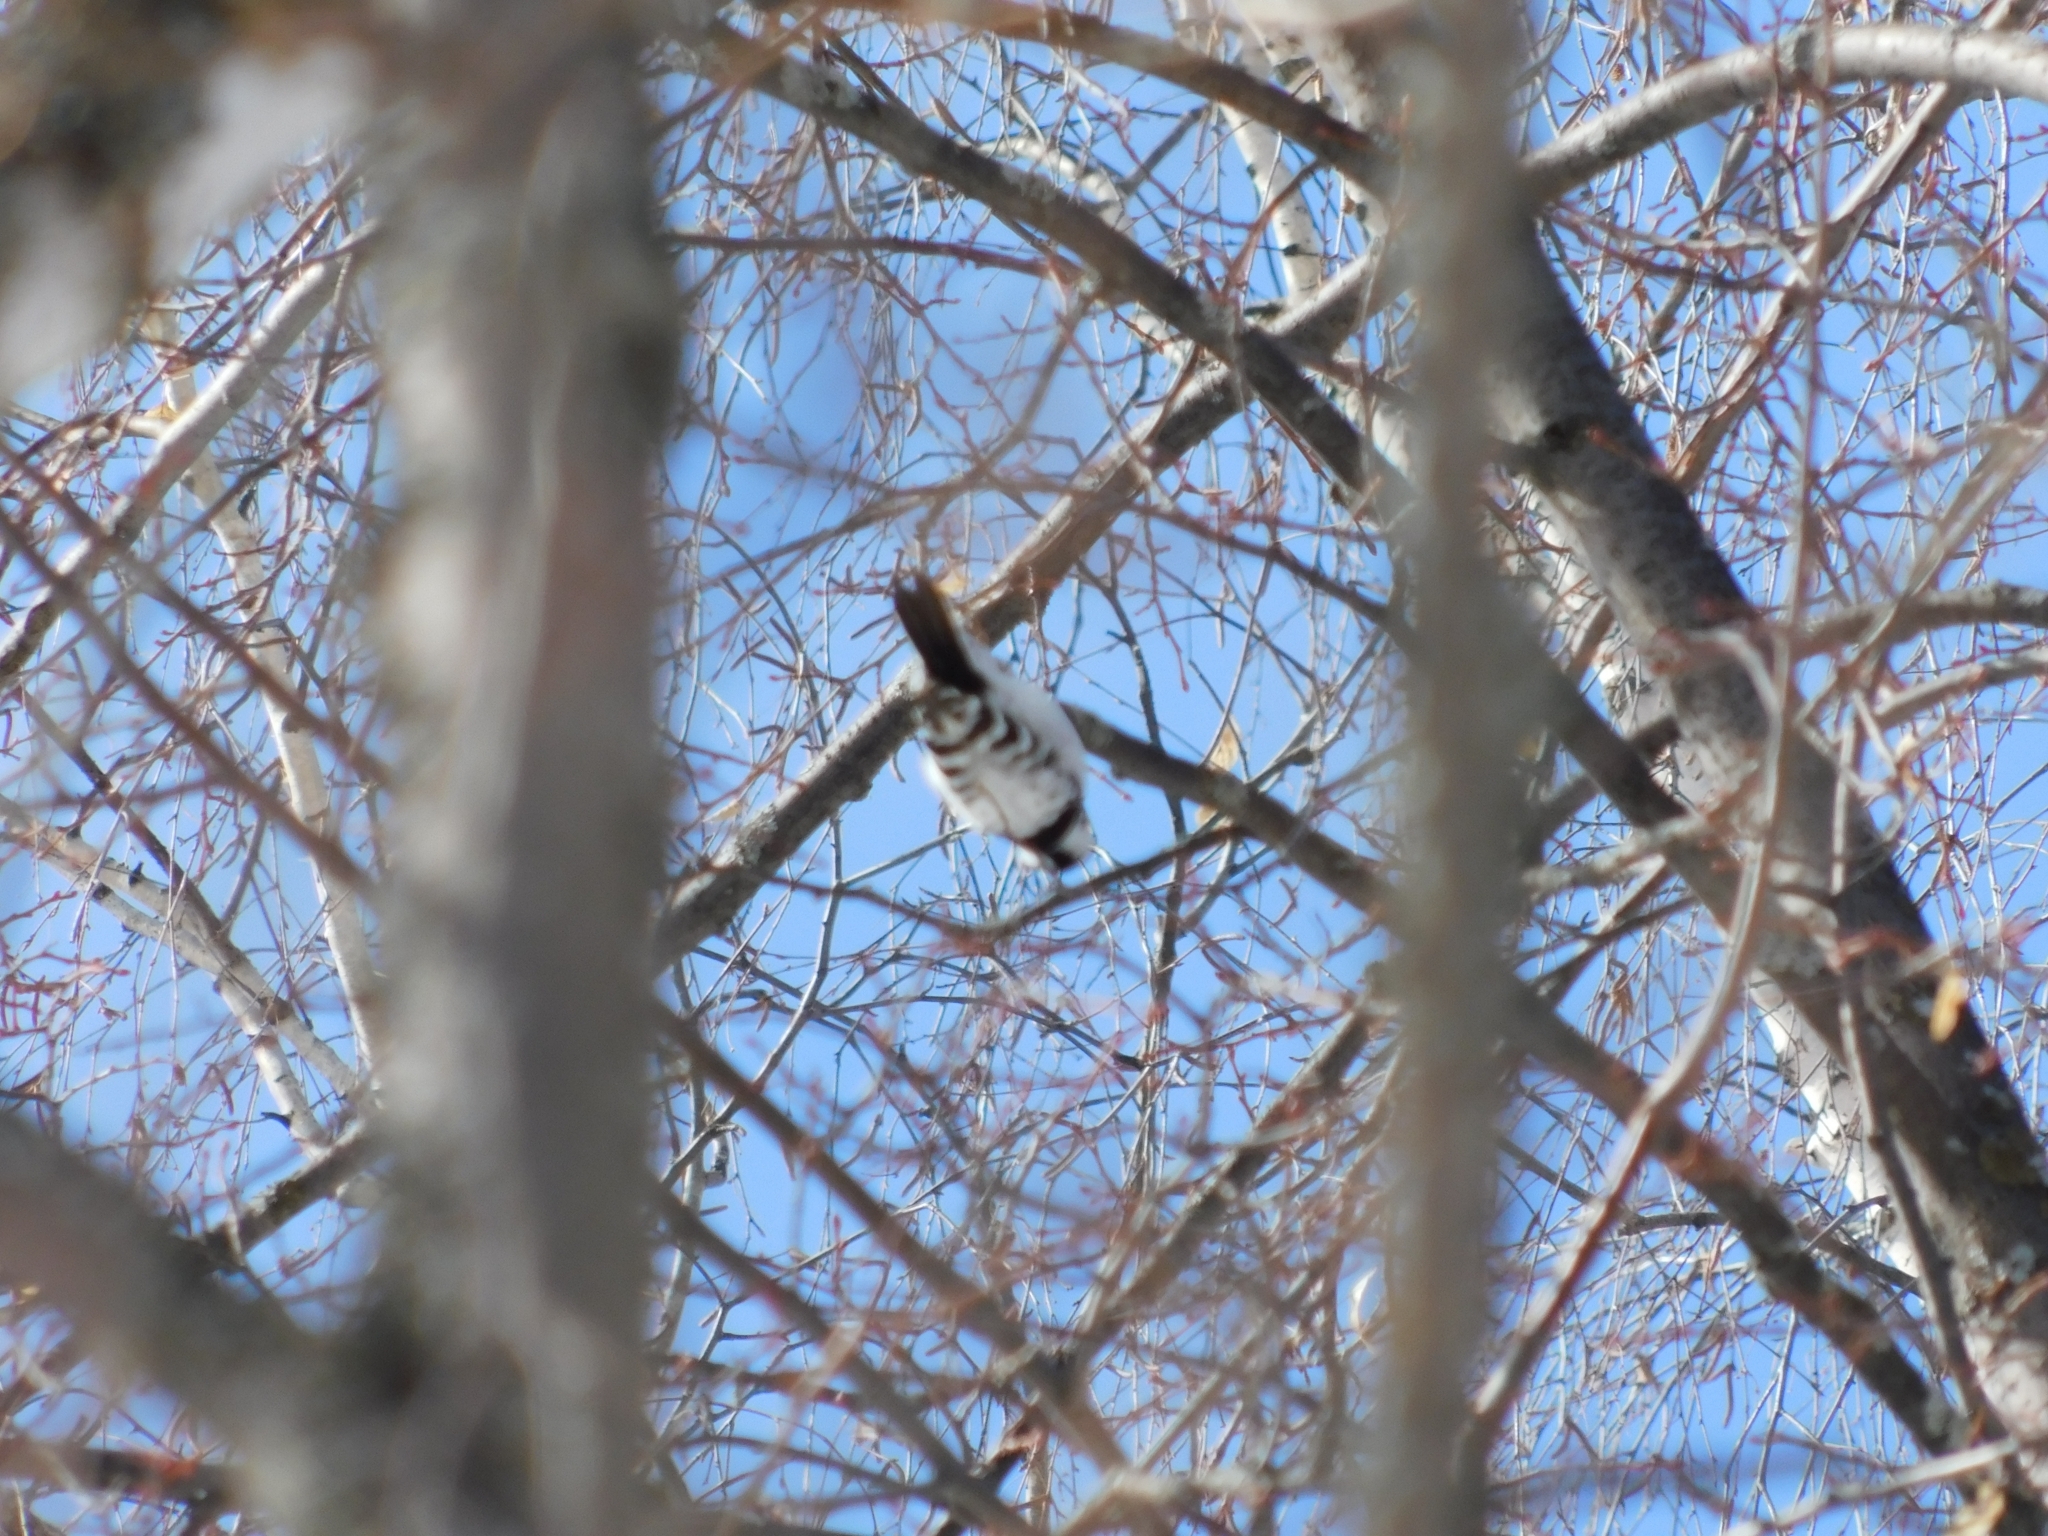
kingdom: Animalia
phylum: Chordata
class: Aves
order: Piciformes
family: Picidae
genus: Dryobates
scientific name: Dryobates minor
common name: Lesser spotted woodpecker
